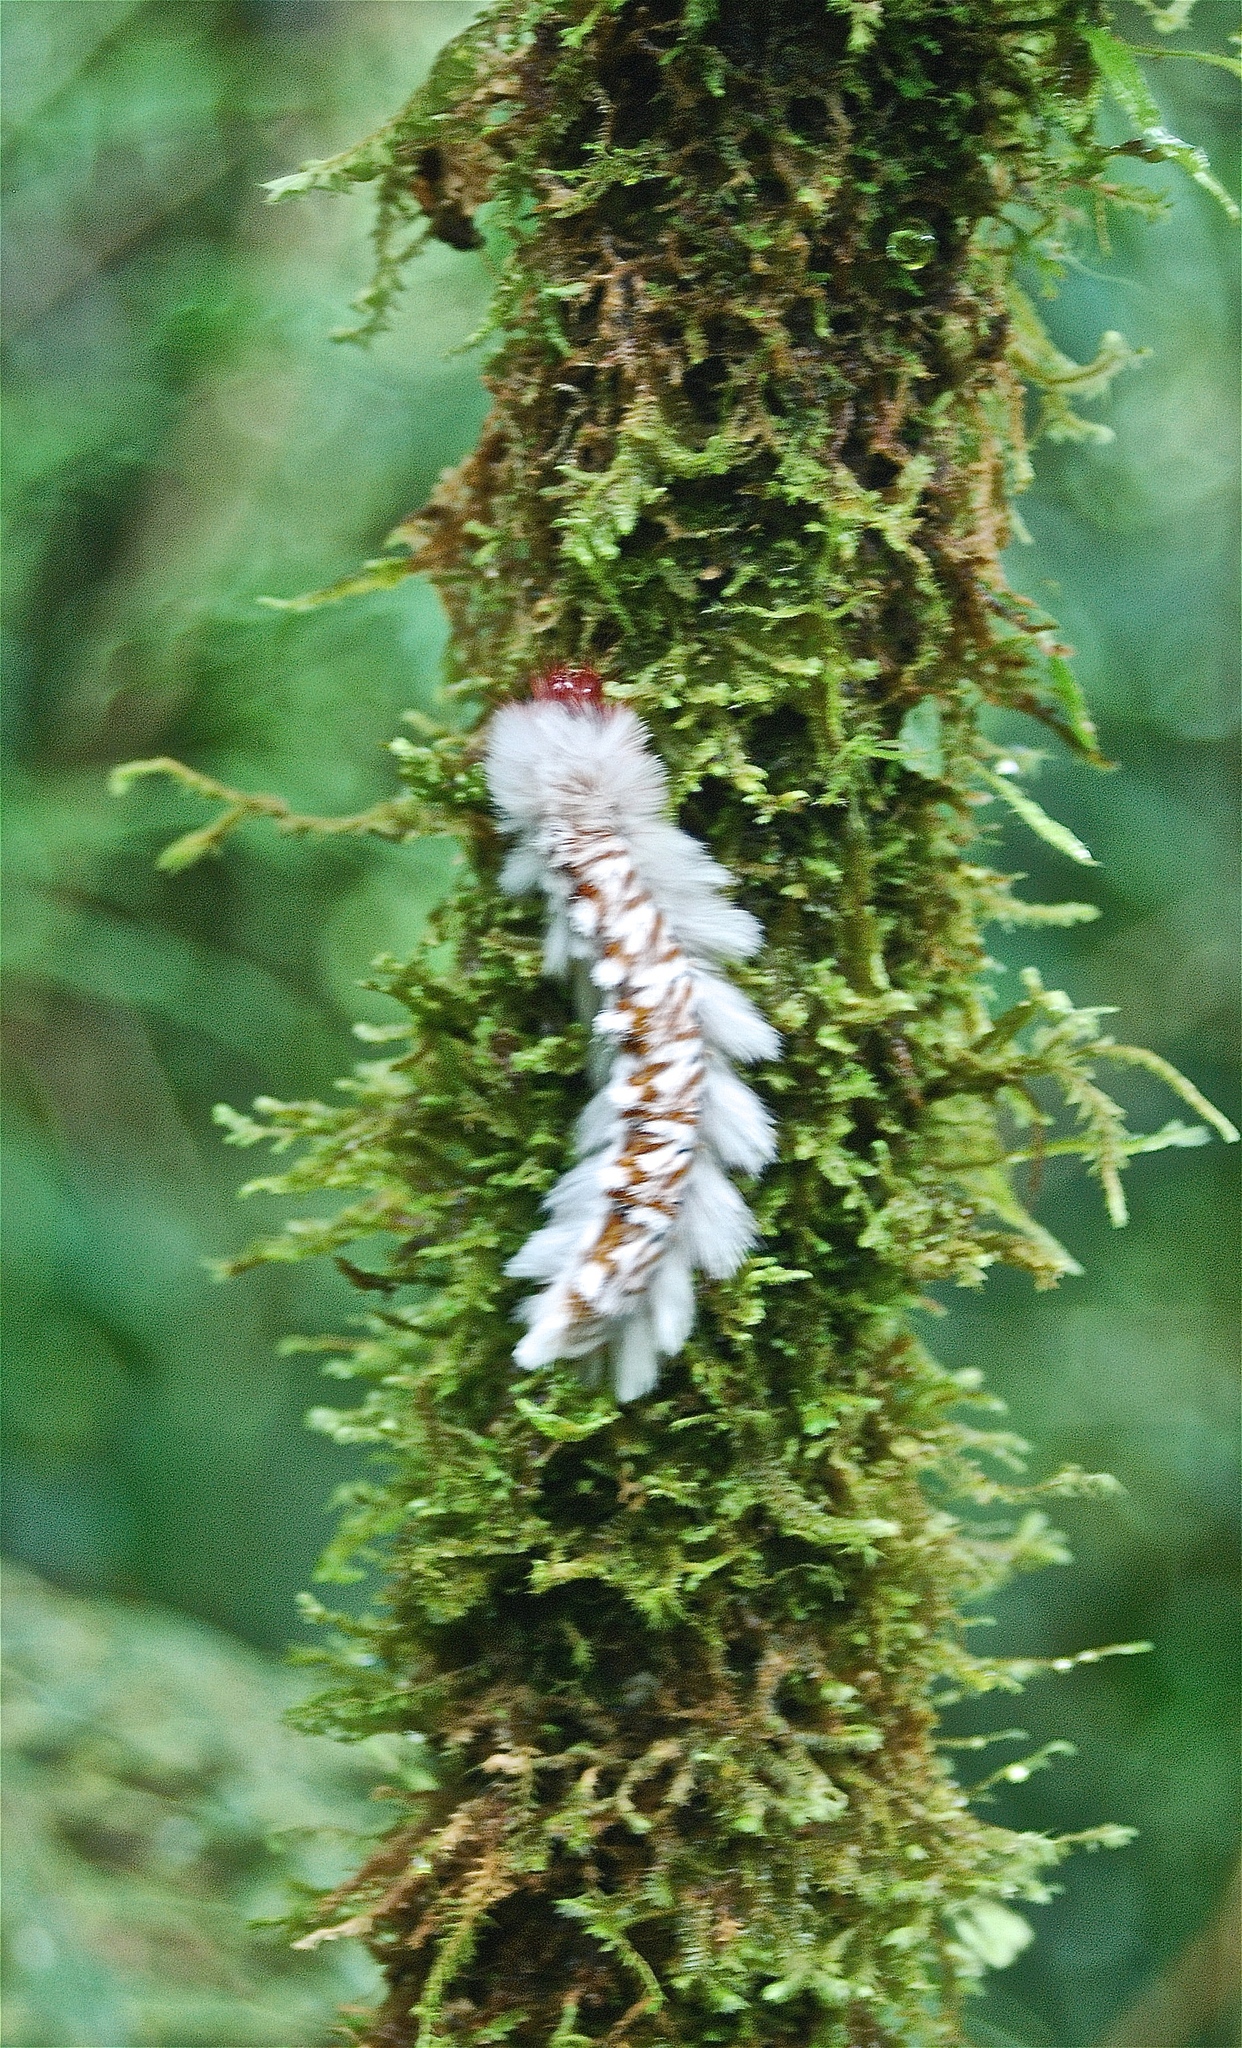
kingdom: Animalia
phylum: Arthropoda
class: Insecta
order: Lepidoptera
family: Eupterotidae
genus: Neopreptos
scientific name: Neopreptos marathusa
